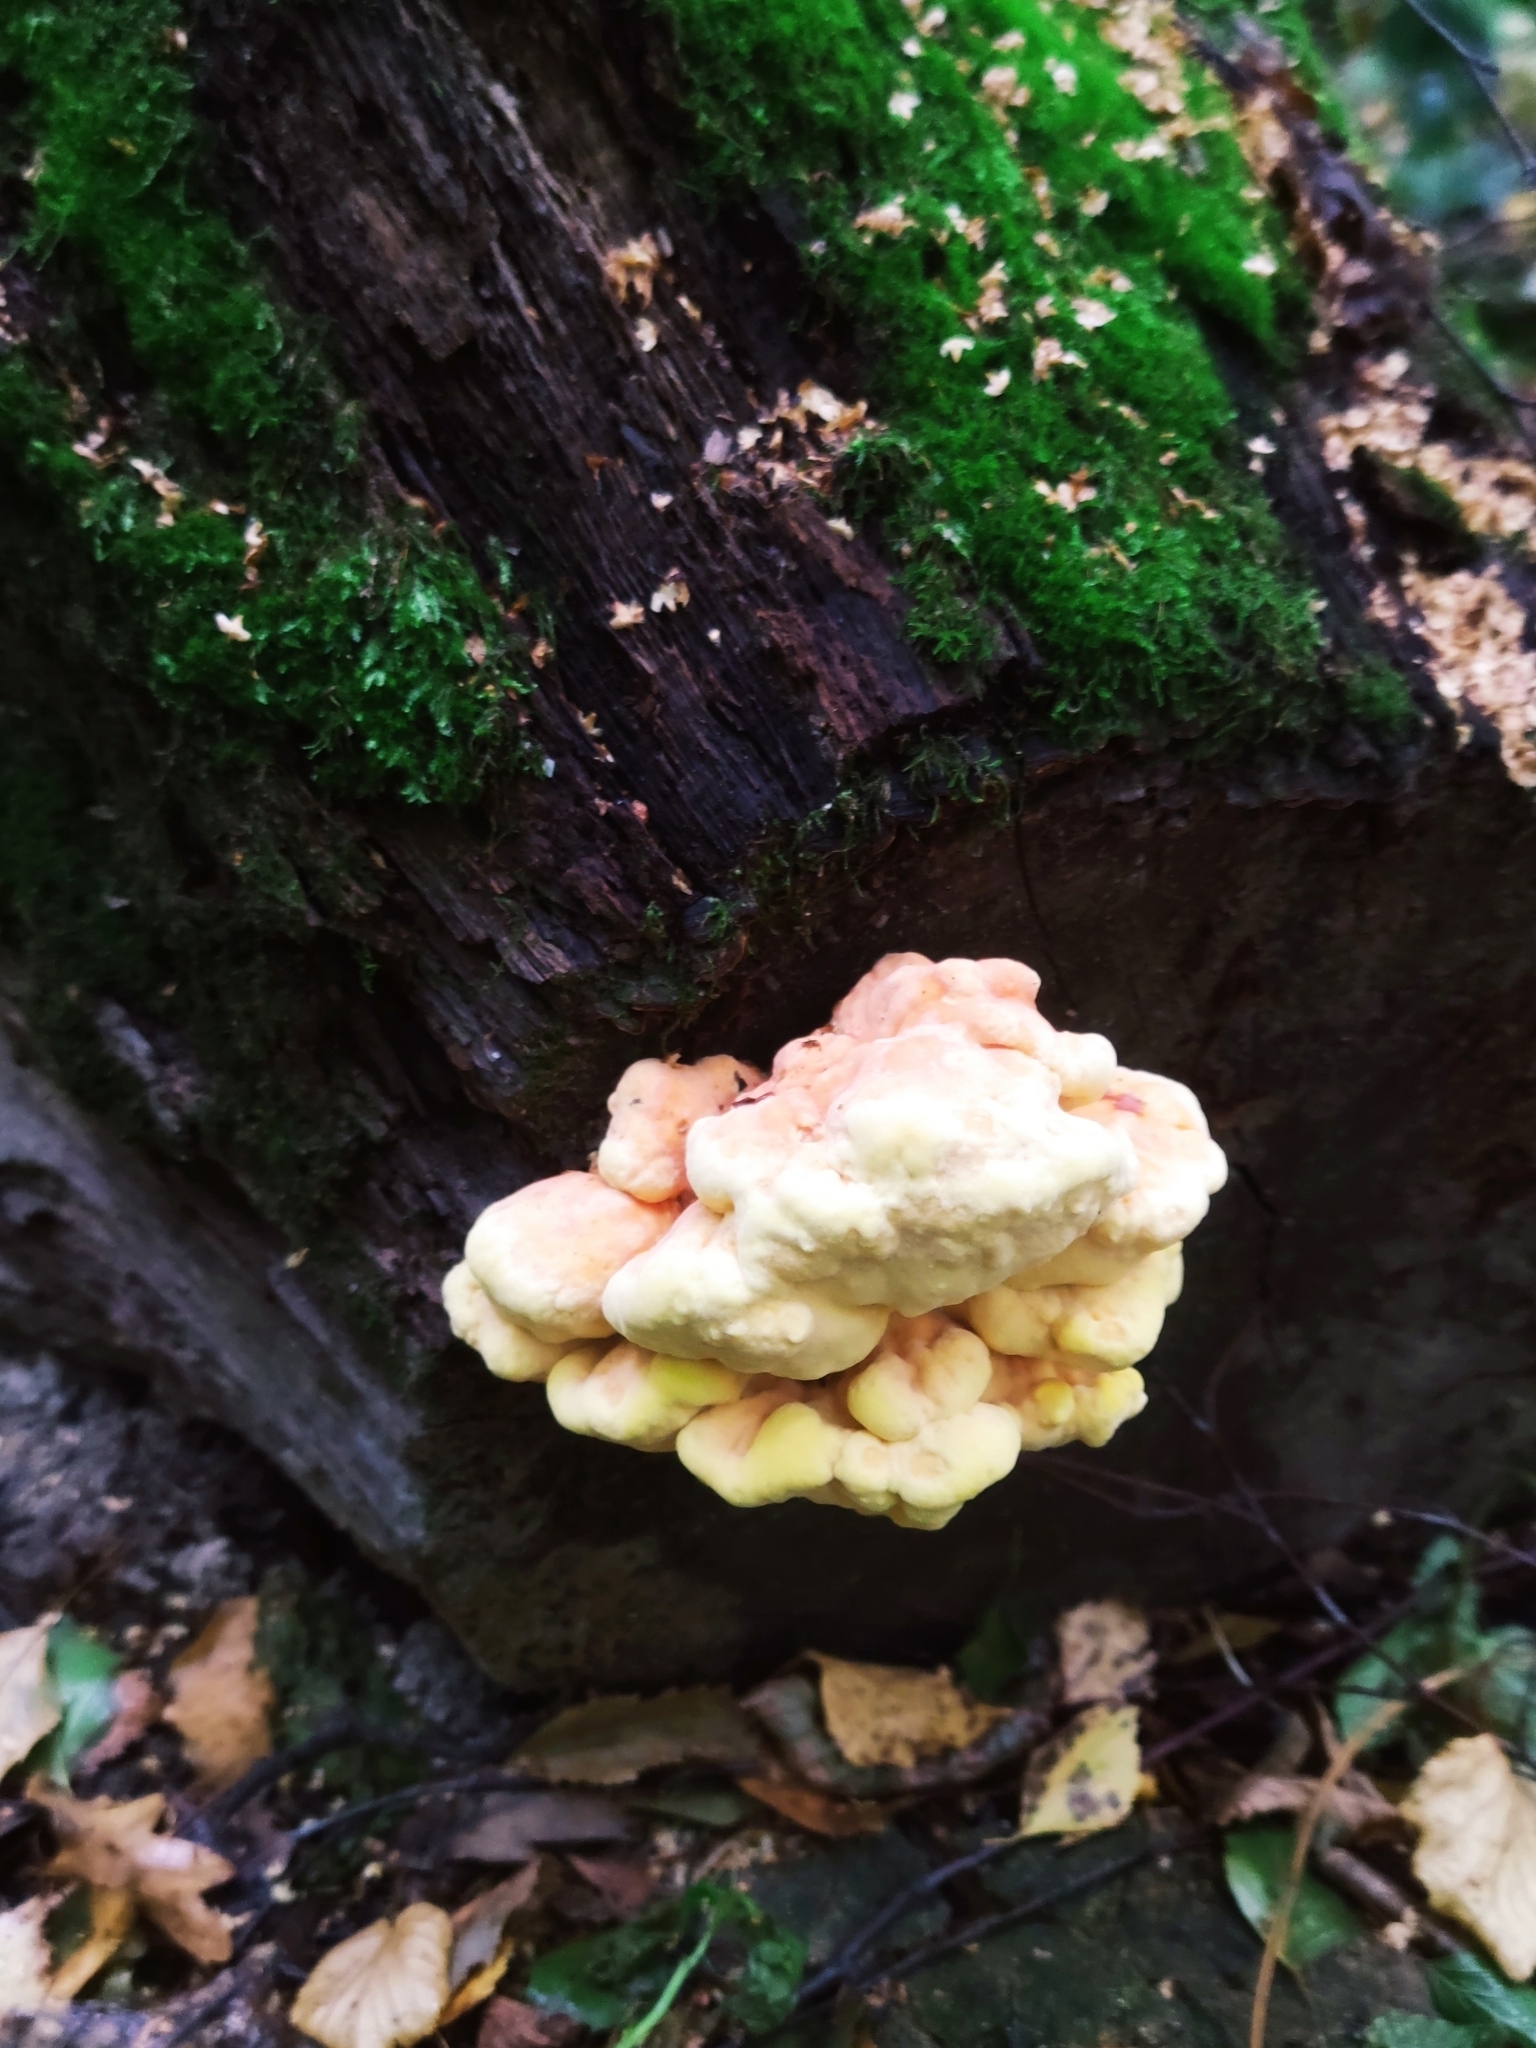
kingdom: Fungi
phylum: Basidiomycota
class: Agaricomycetes
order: Polyporales
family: Laetiporaceae
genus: Laetiporus
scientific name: Laetiporus sulphureus
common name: Chicken of the woods
